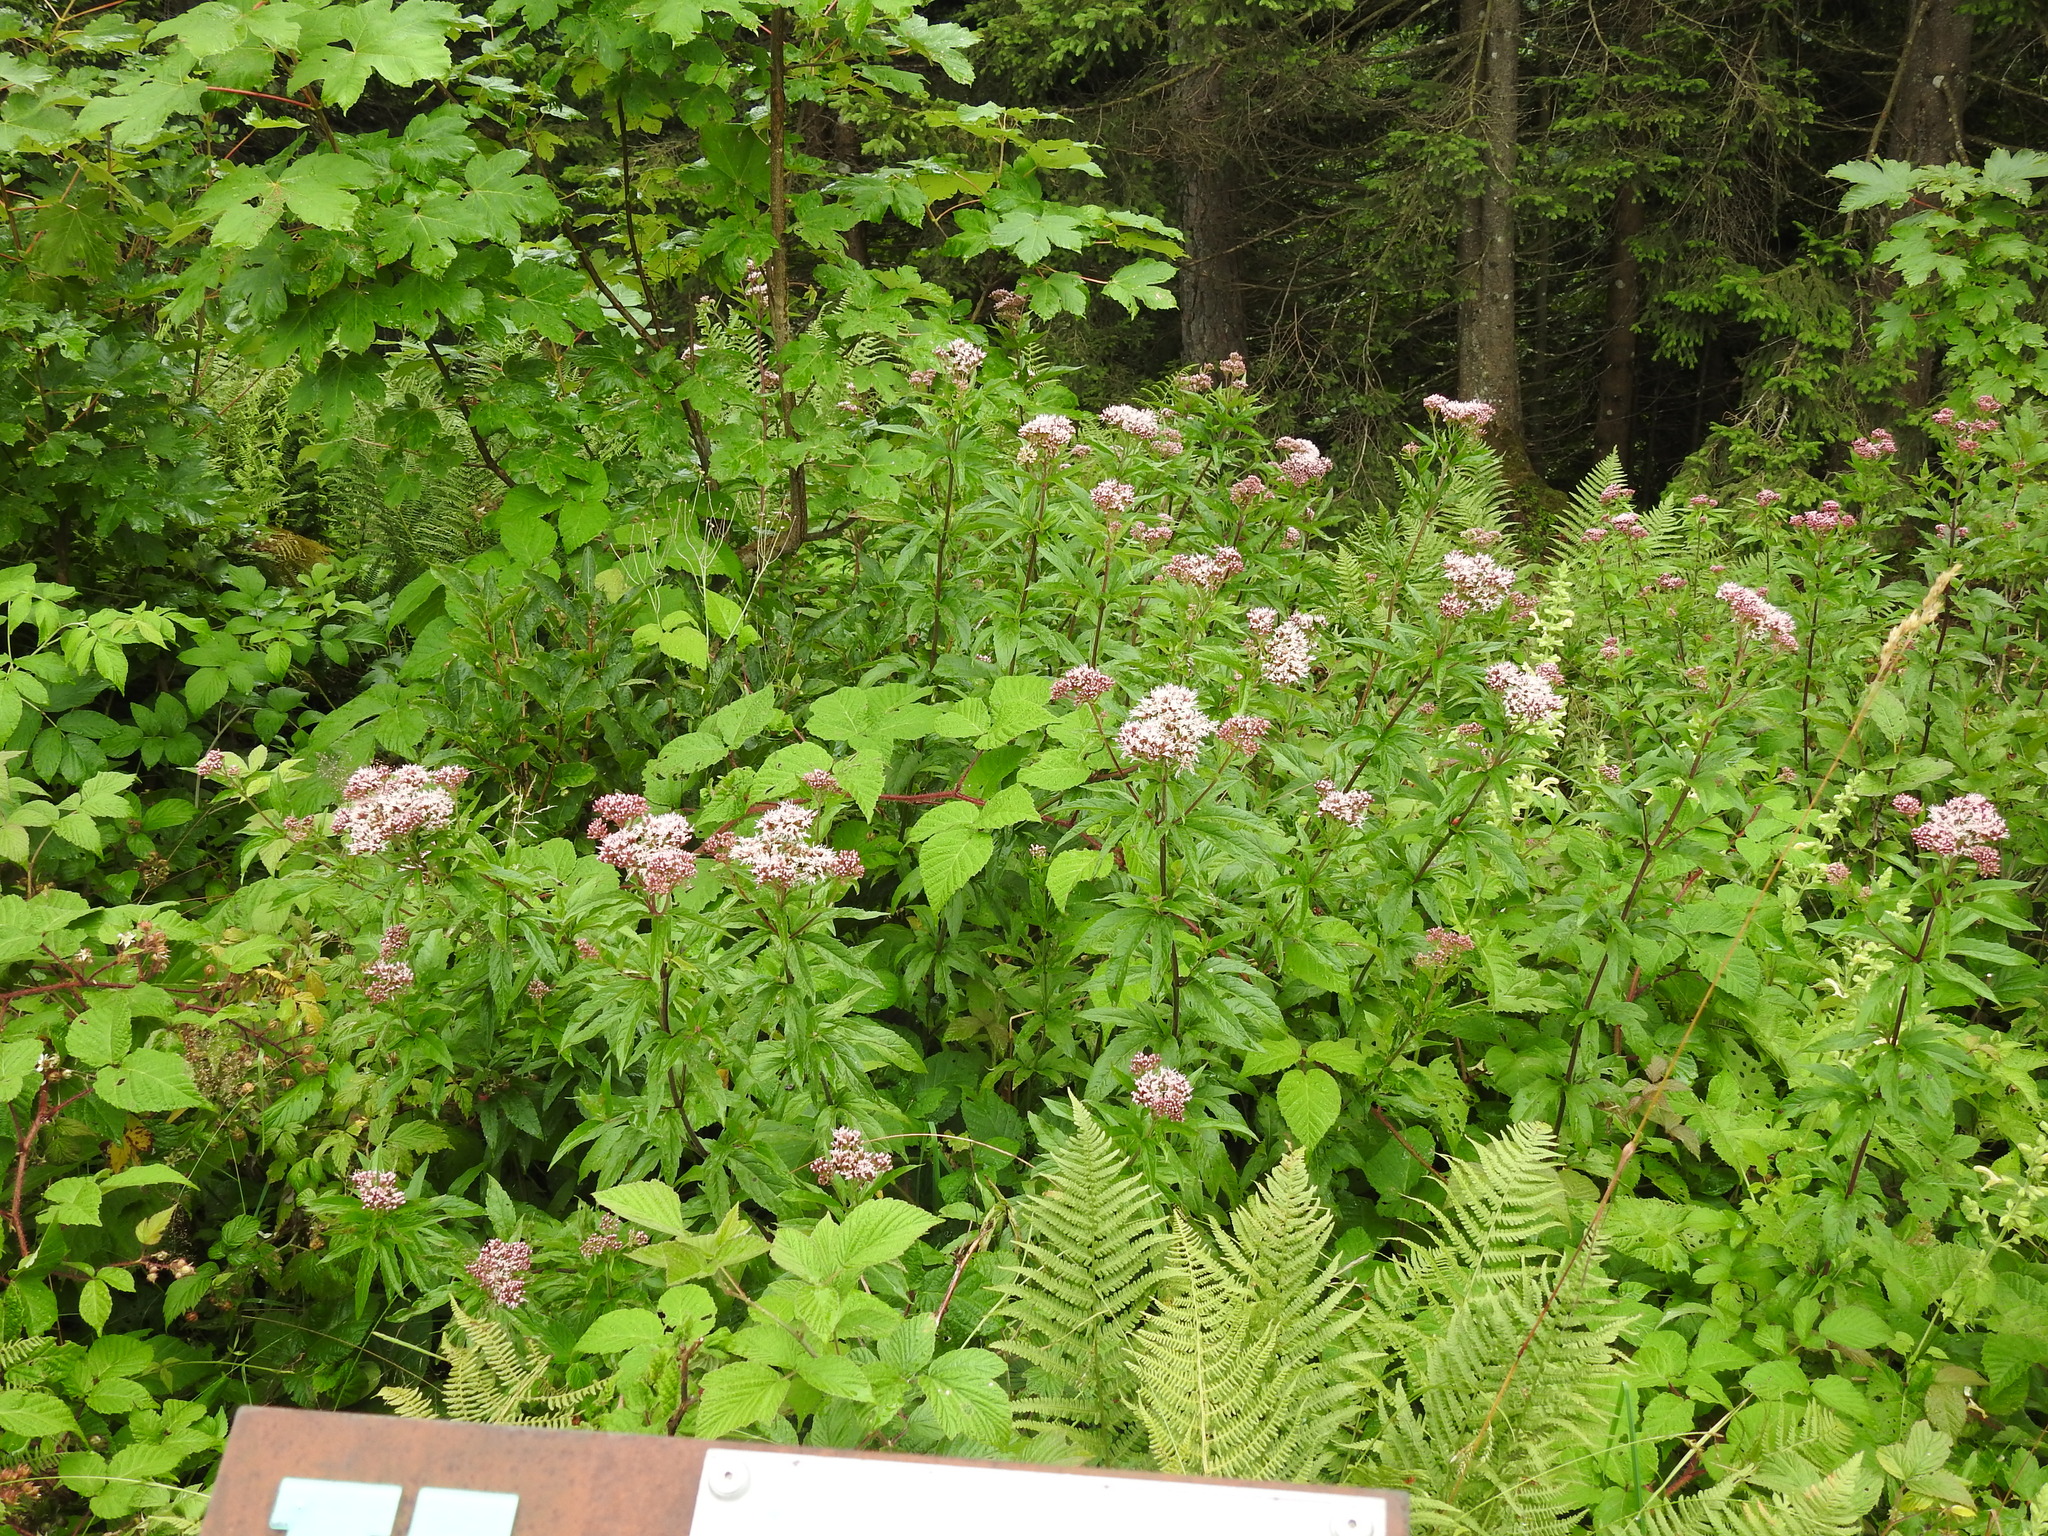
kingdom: Plantae
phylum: Tracheophyta
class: Magnoliopsida
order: Asterales
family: Asteraceae
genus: Eupatorium
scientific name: Eupatorium cannabinum
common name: Hemp-agrimony
